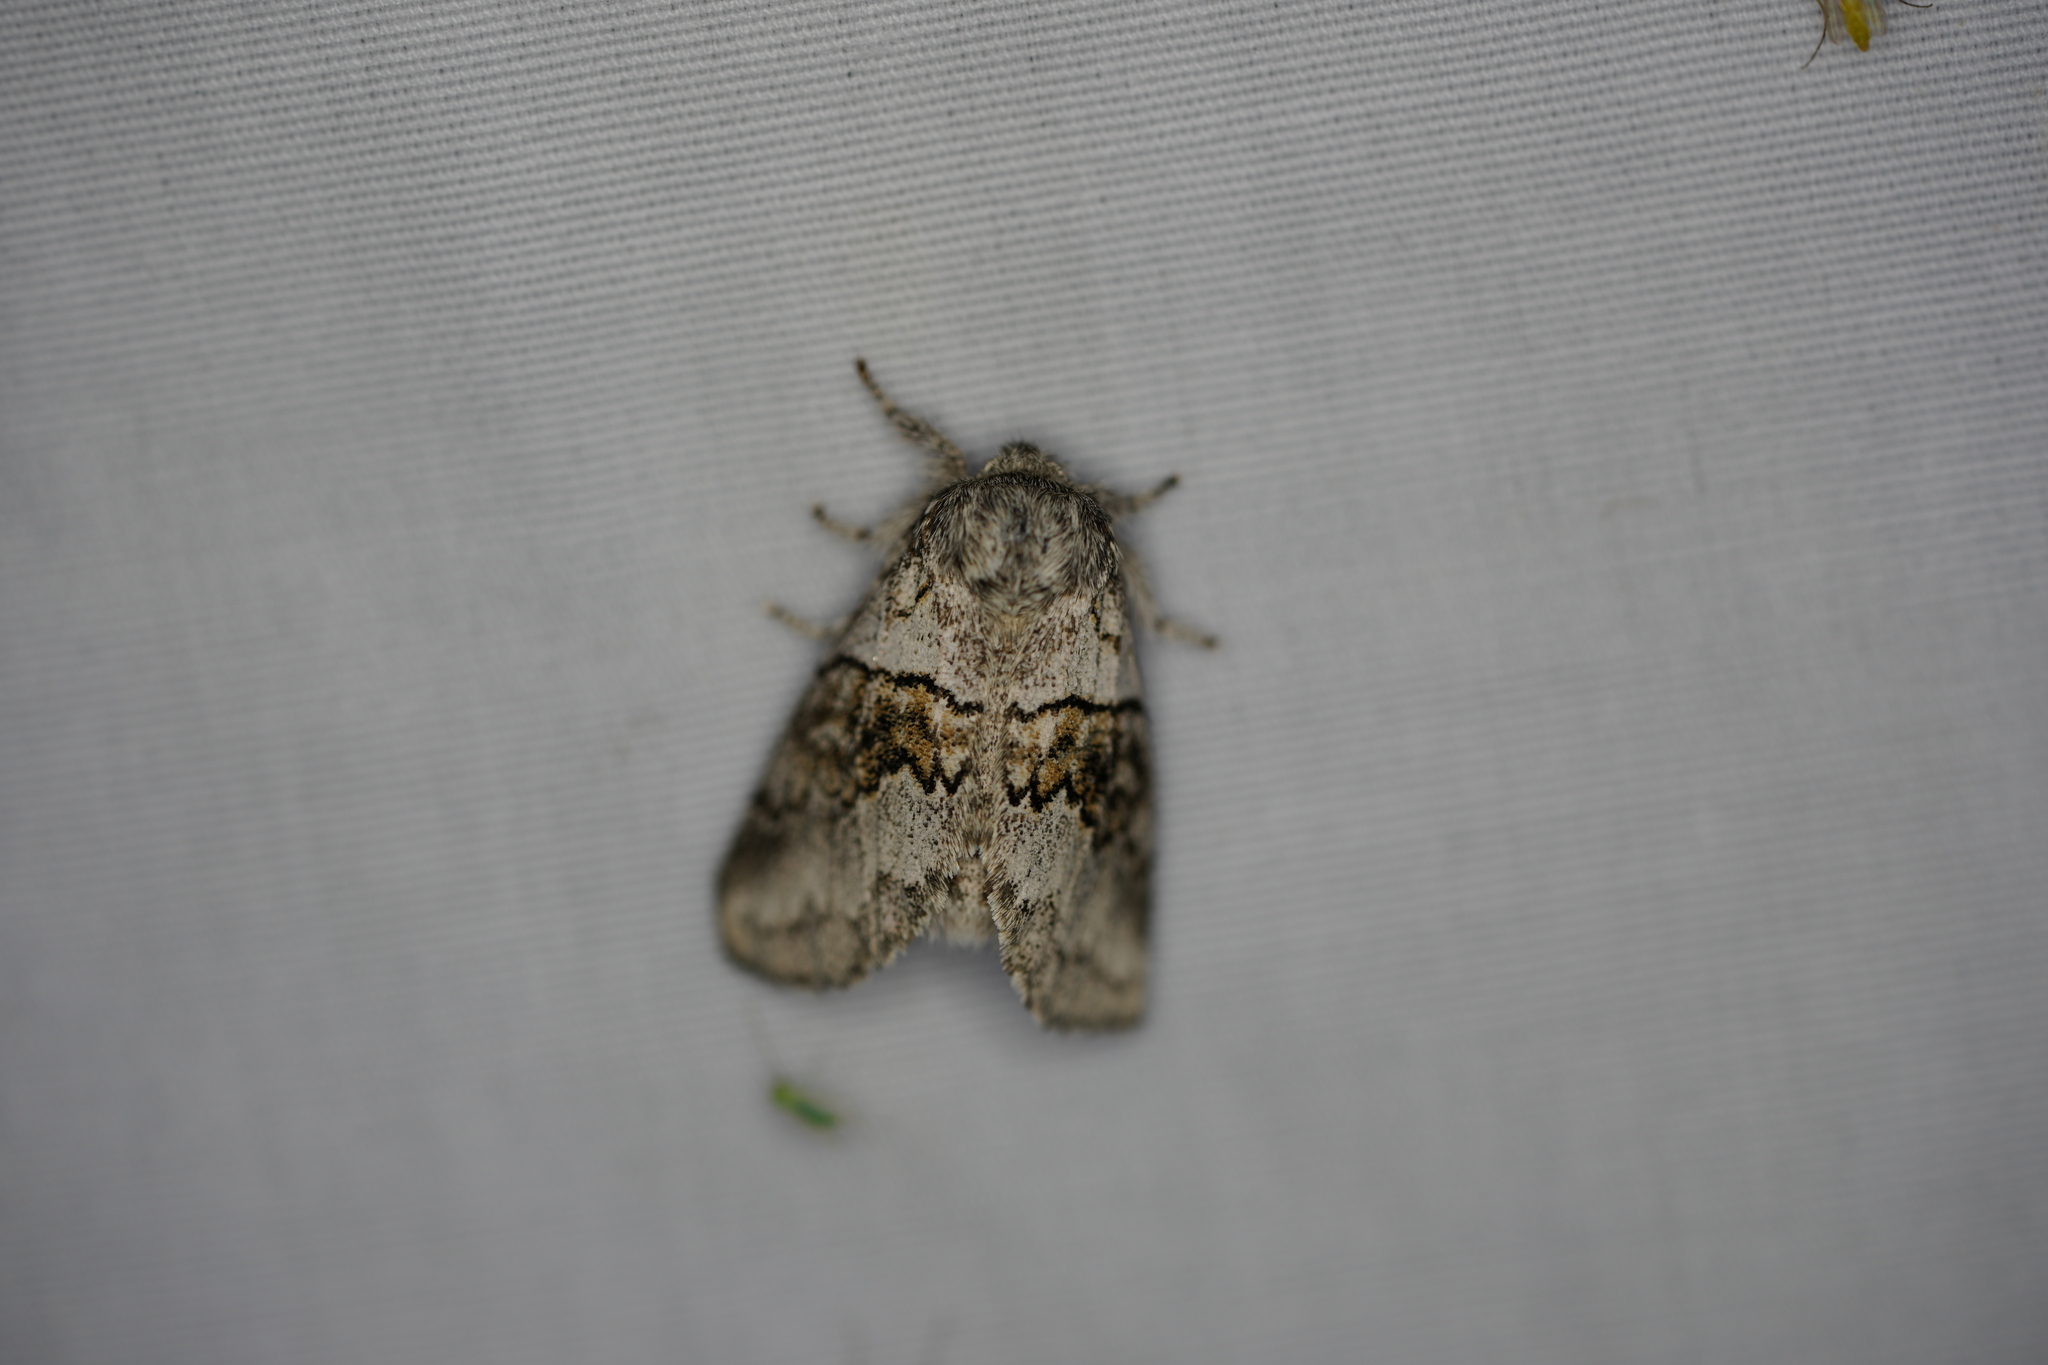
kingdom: Animalia
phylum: Arthropoda
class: Insecta
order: Lepidoptera
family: Notodontidae
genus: Gluphisia
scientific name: Gluphisia septentrionis
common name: Common gluphisia
